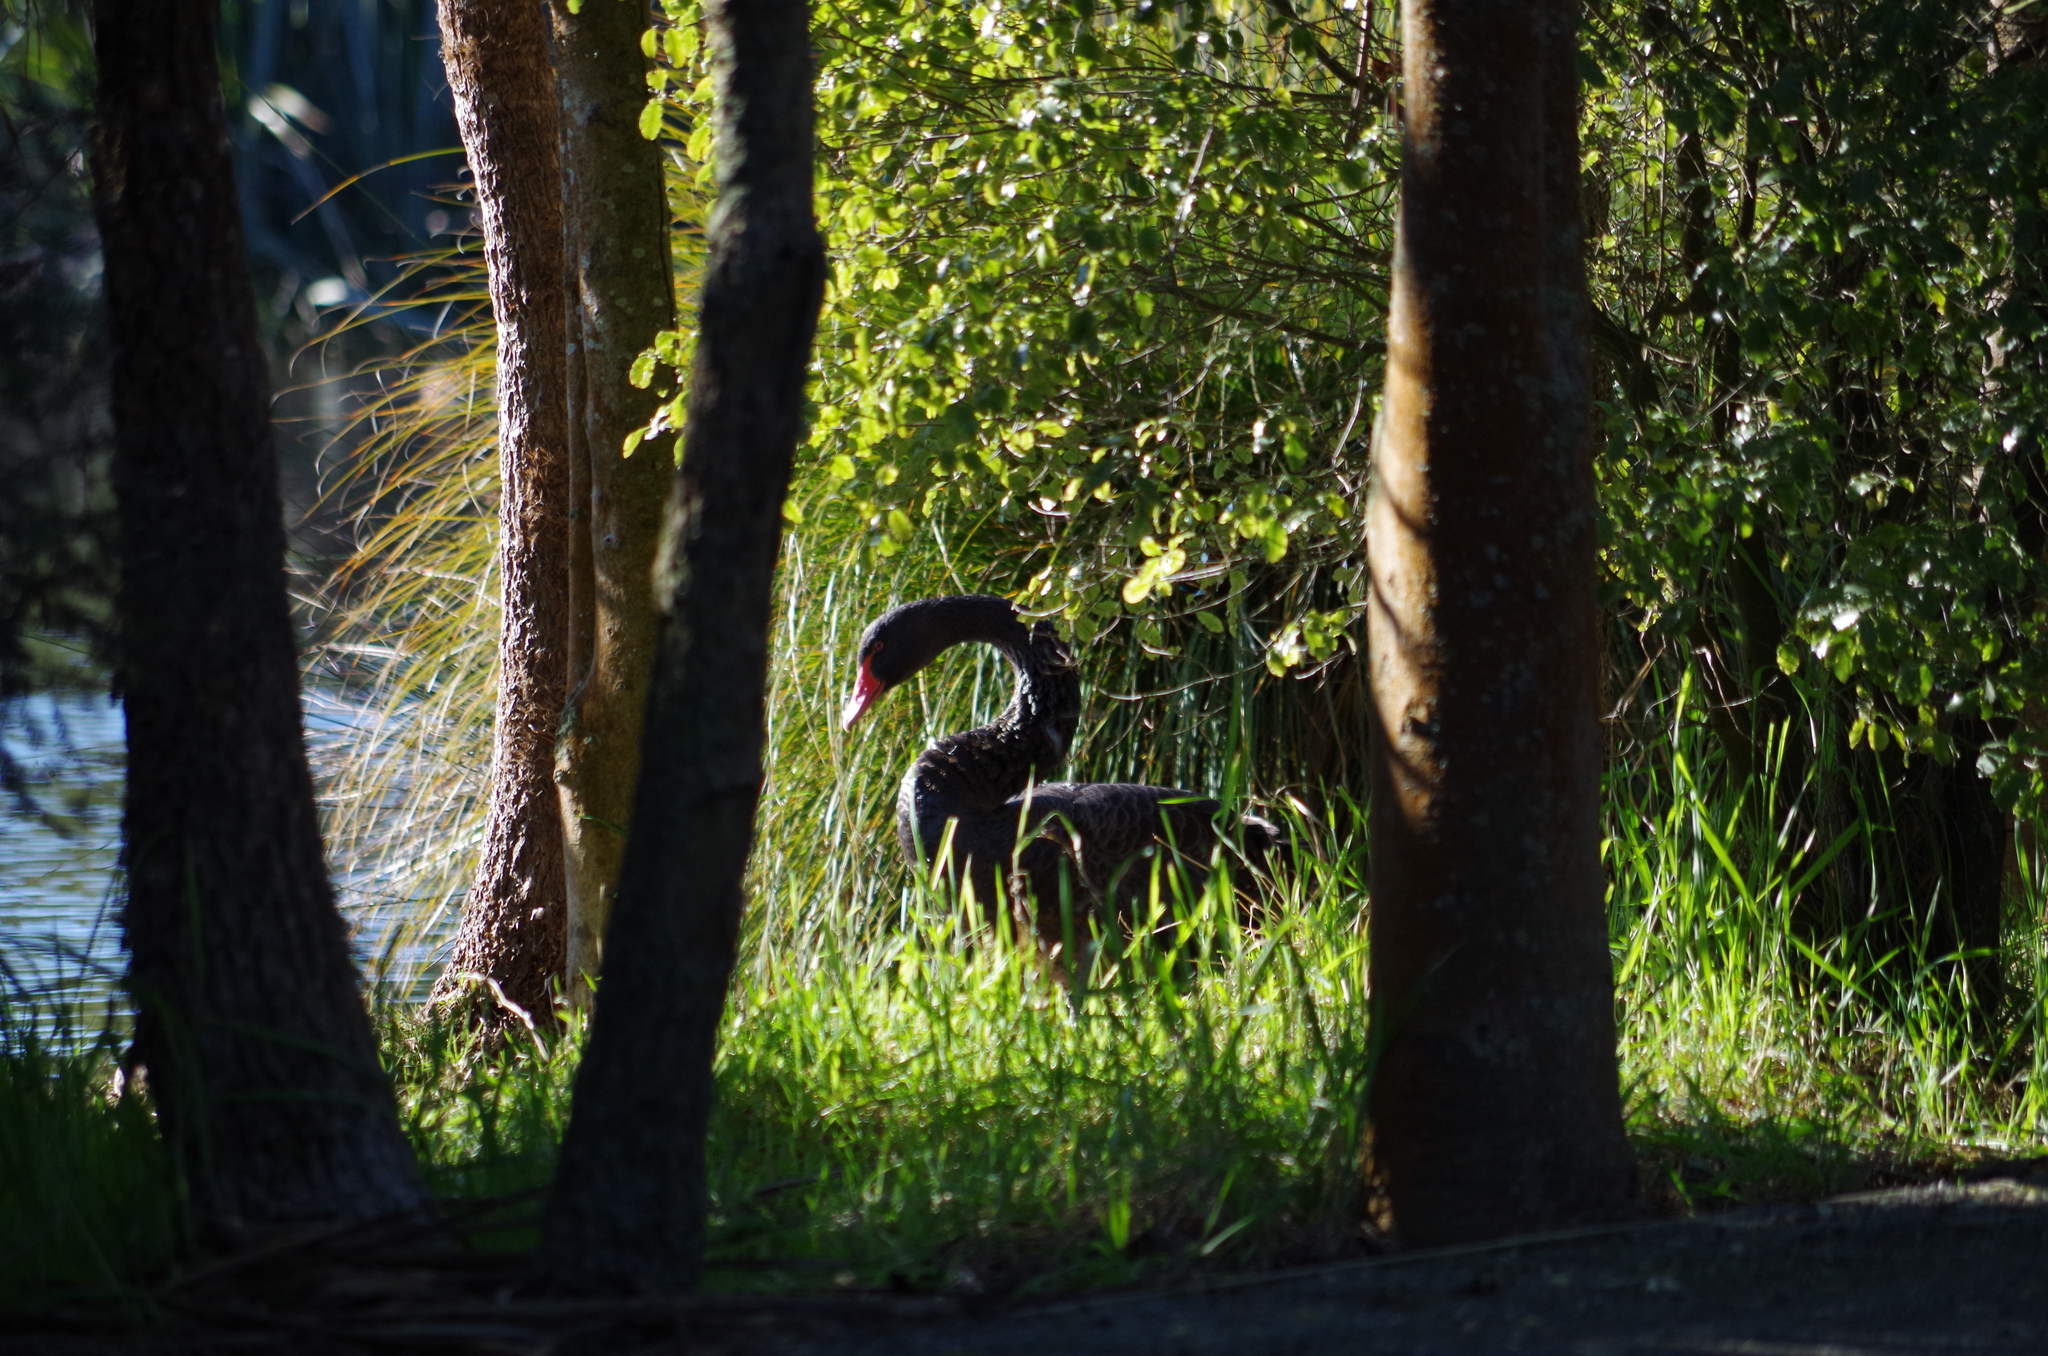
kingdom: Animalia
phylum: Chordata
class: Aves
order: Anseriformes
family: Anatidae
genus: Cygnus
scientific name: Cygnus atratus
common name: Black swan
